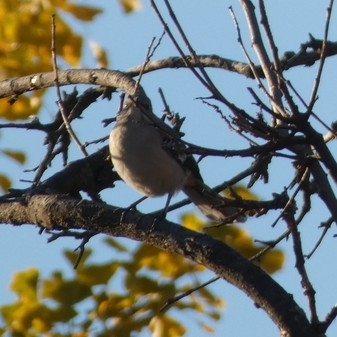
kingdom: Animalia
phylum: Chordata
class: Aves
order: Passeriformes
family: Mimidae
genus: Mimus
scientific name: Mimus polyglottos
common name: Northern mockingbird
